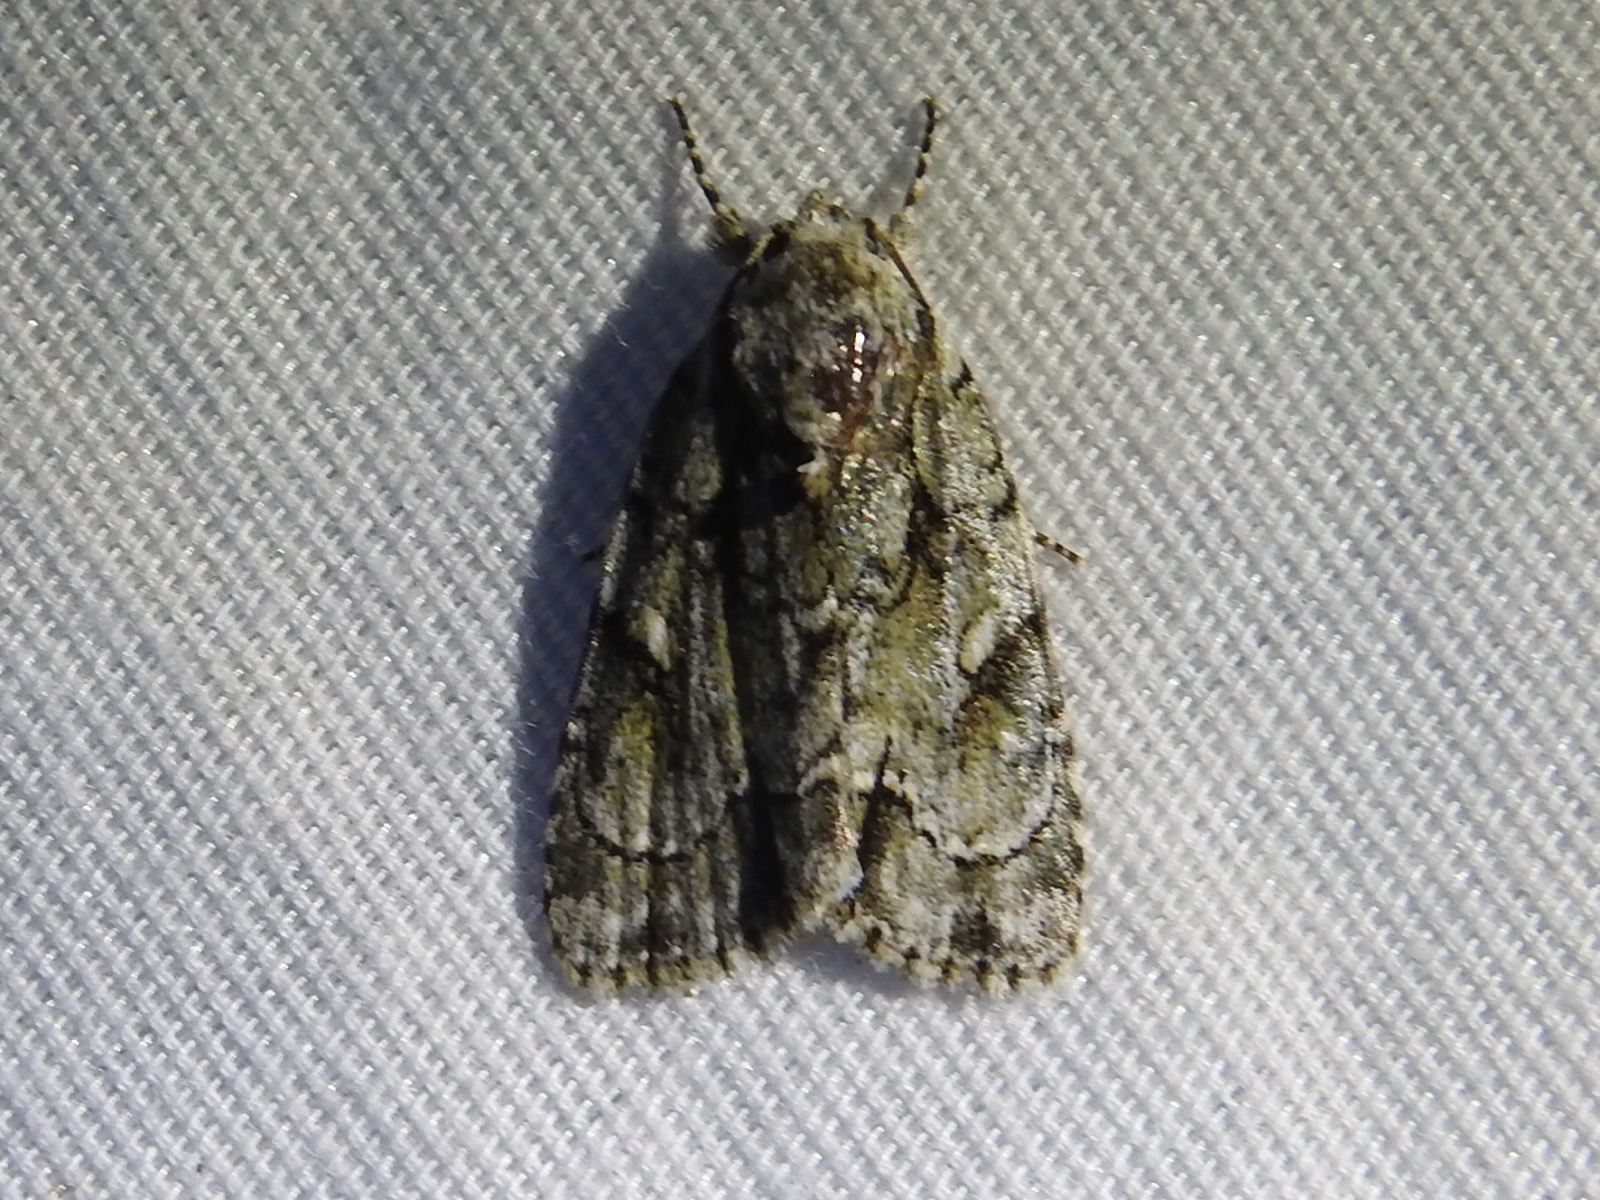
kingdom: Animalia
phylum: Arthropoda
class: Insecta
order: Lepidoptera
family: Noctuidae
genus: Acronicta
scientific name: Acronicta vinnula
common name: Delightful dagger
